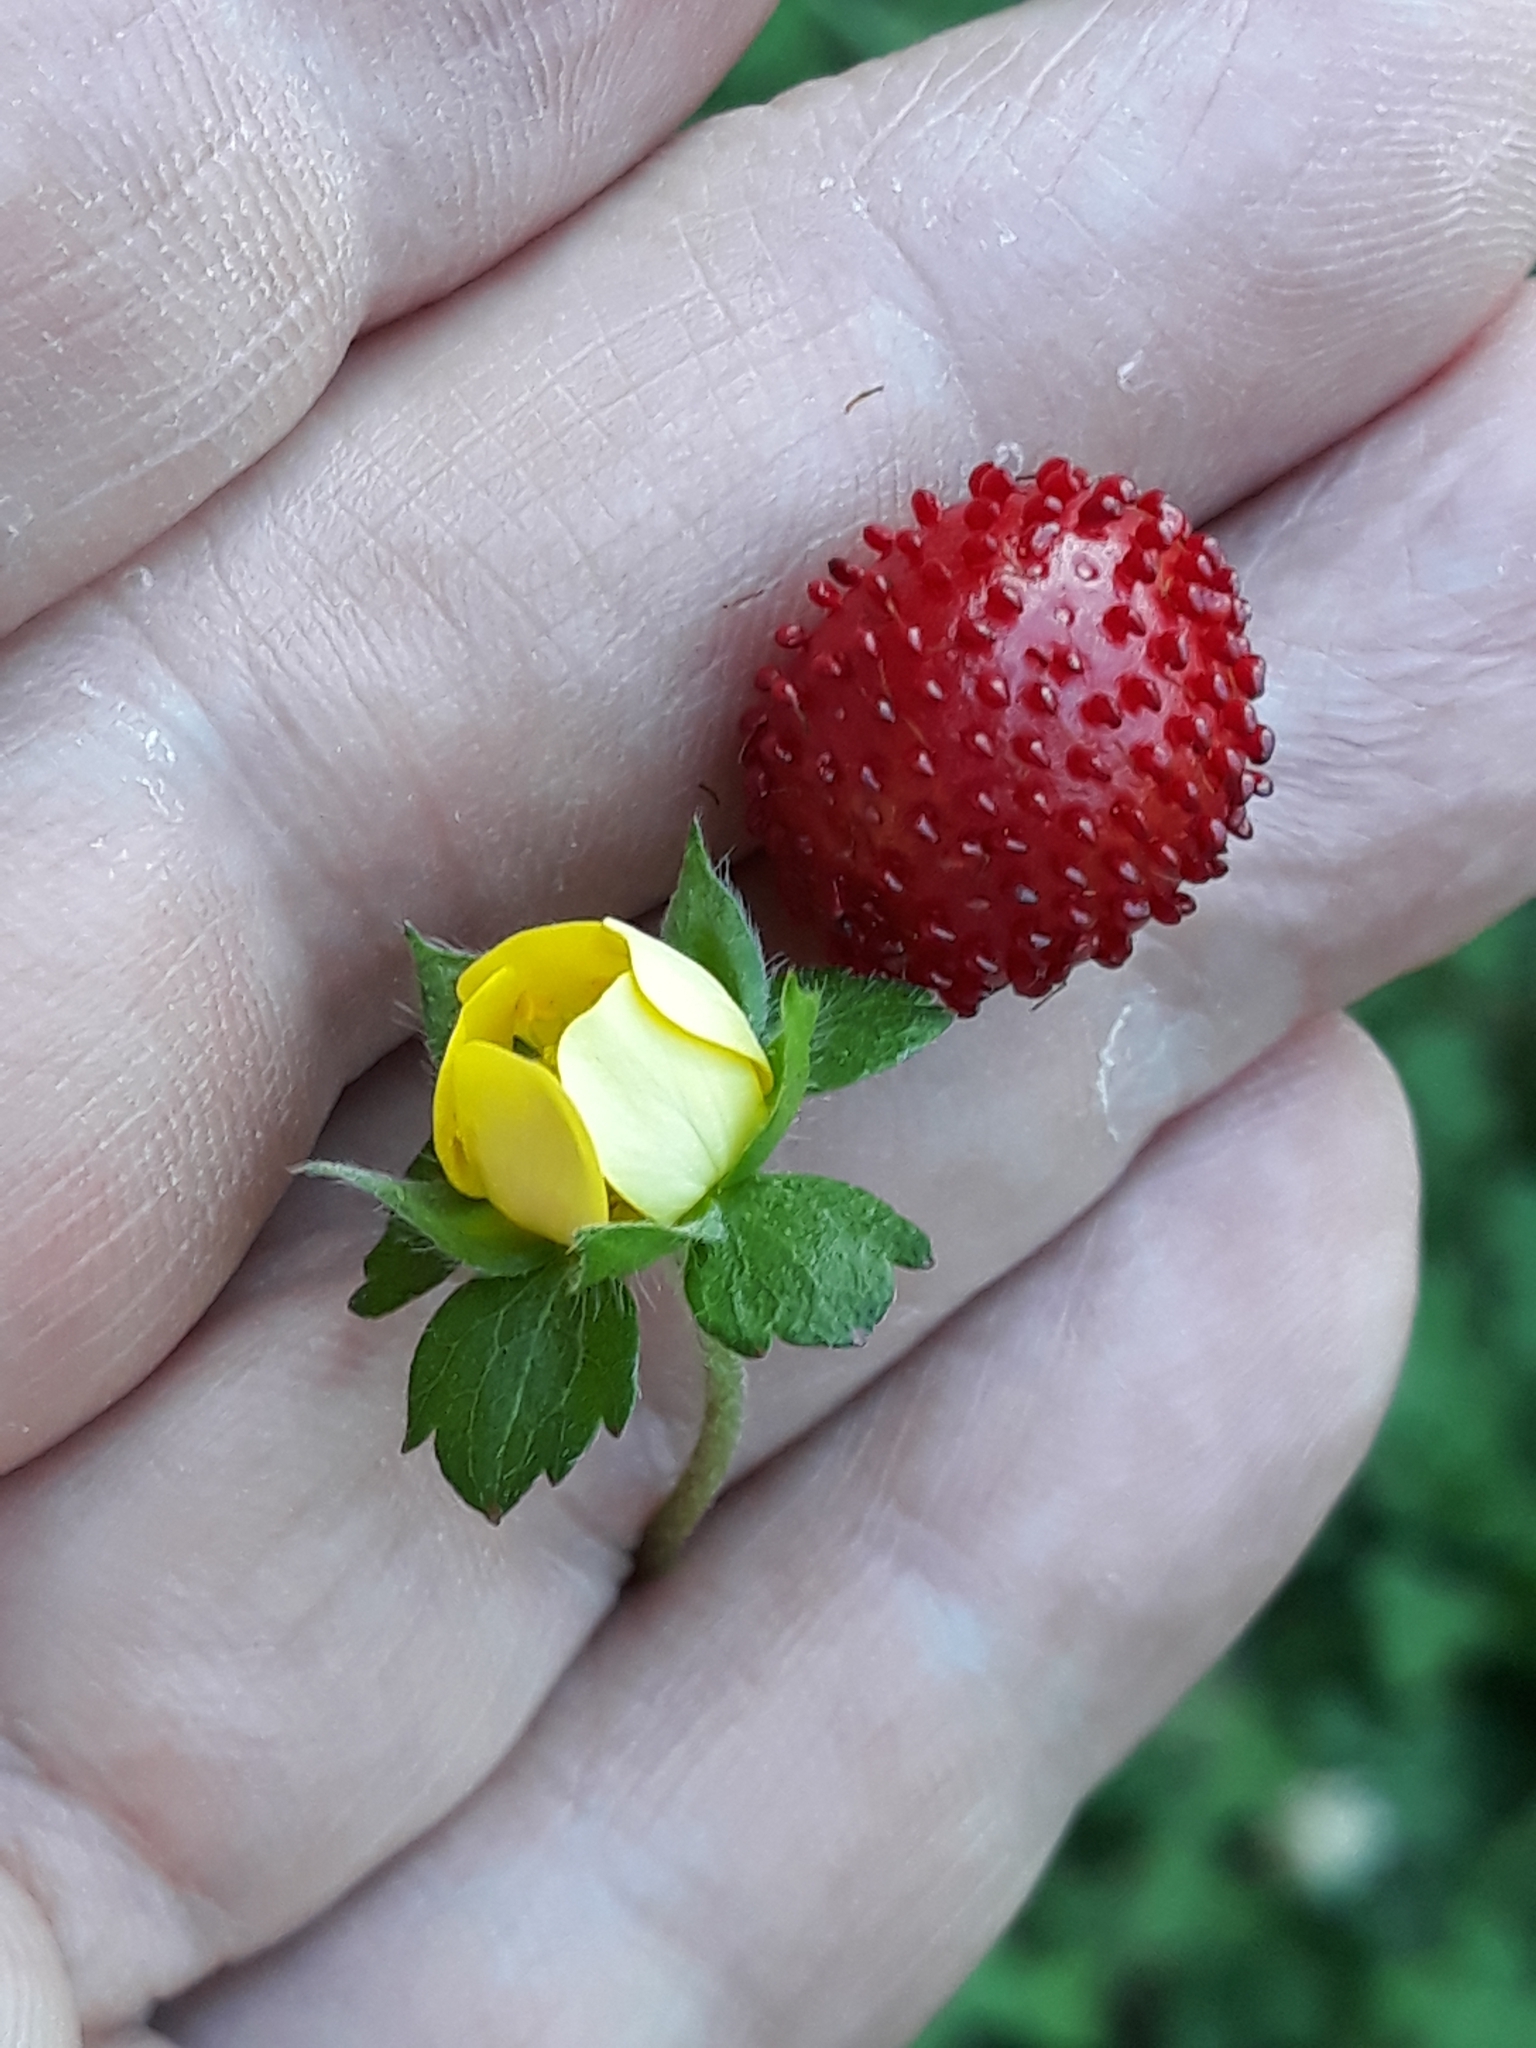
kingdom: Plantae
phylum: Tracheophyta
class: Magnoliopsida
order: Rosales
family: Rosaceae
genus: Potentilla
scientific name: Potentilla indica
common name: Yellow-flowered strawberry
